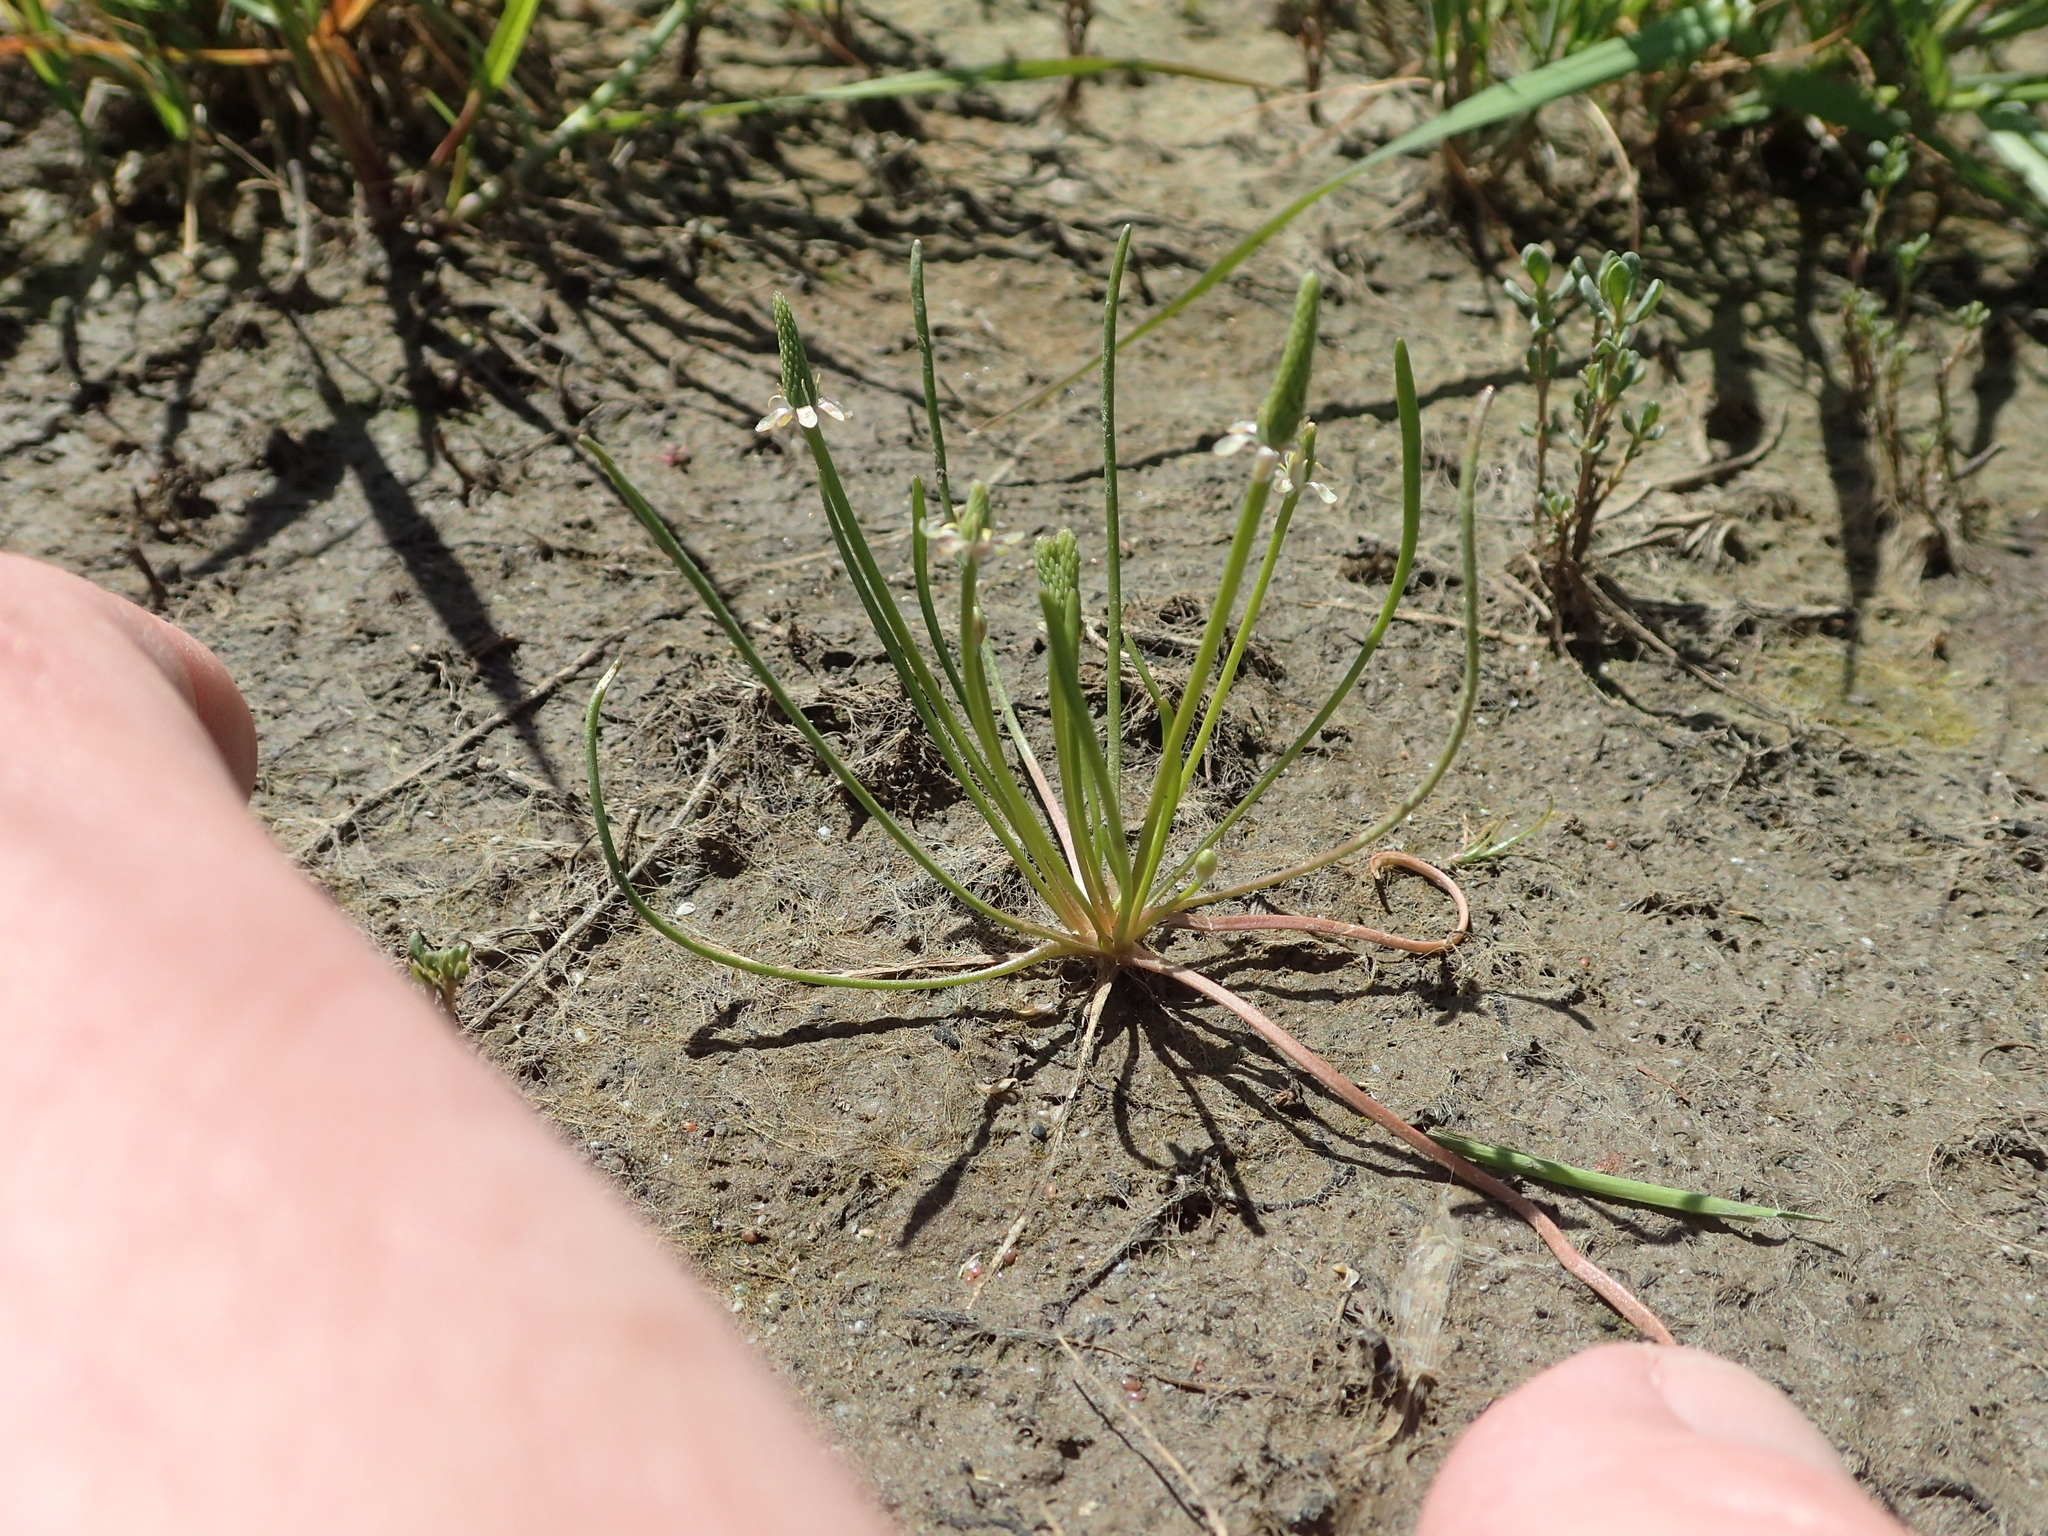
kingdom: Plantae
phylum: Tracheophyta
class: Magnoliopsida
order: Ranunculales
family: Ranunculaceae
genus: Myosurus
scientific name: Myosurus minimus
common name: Mousetail
